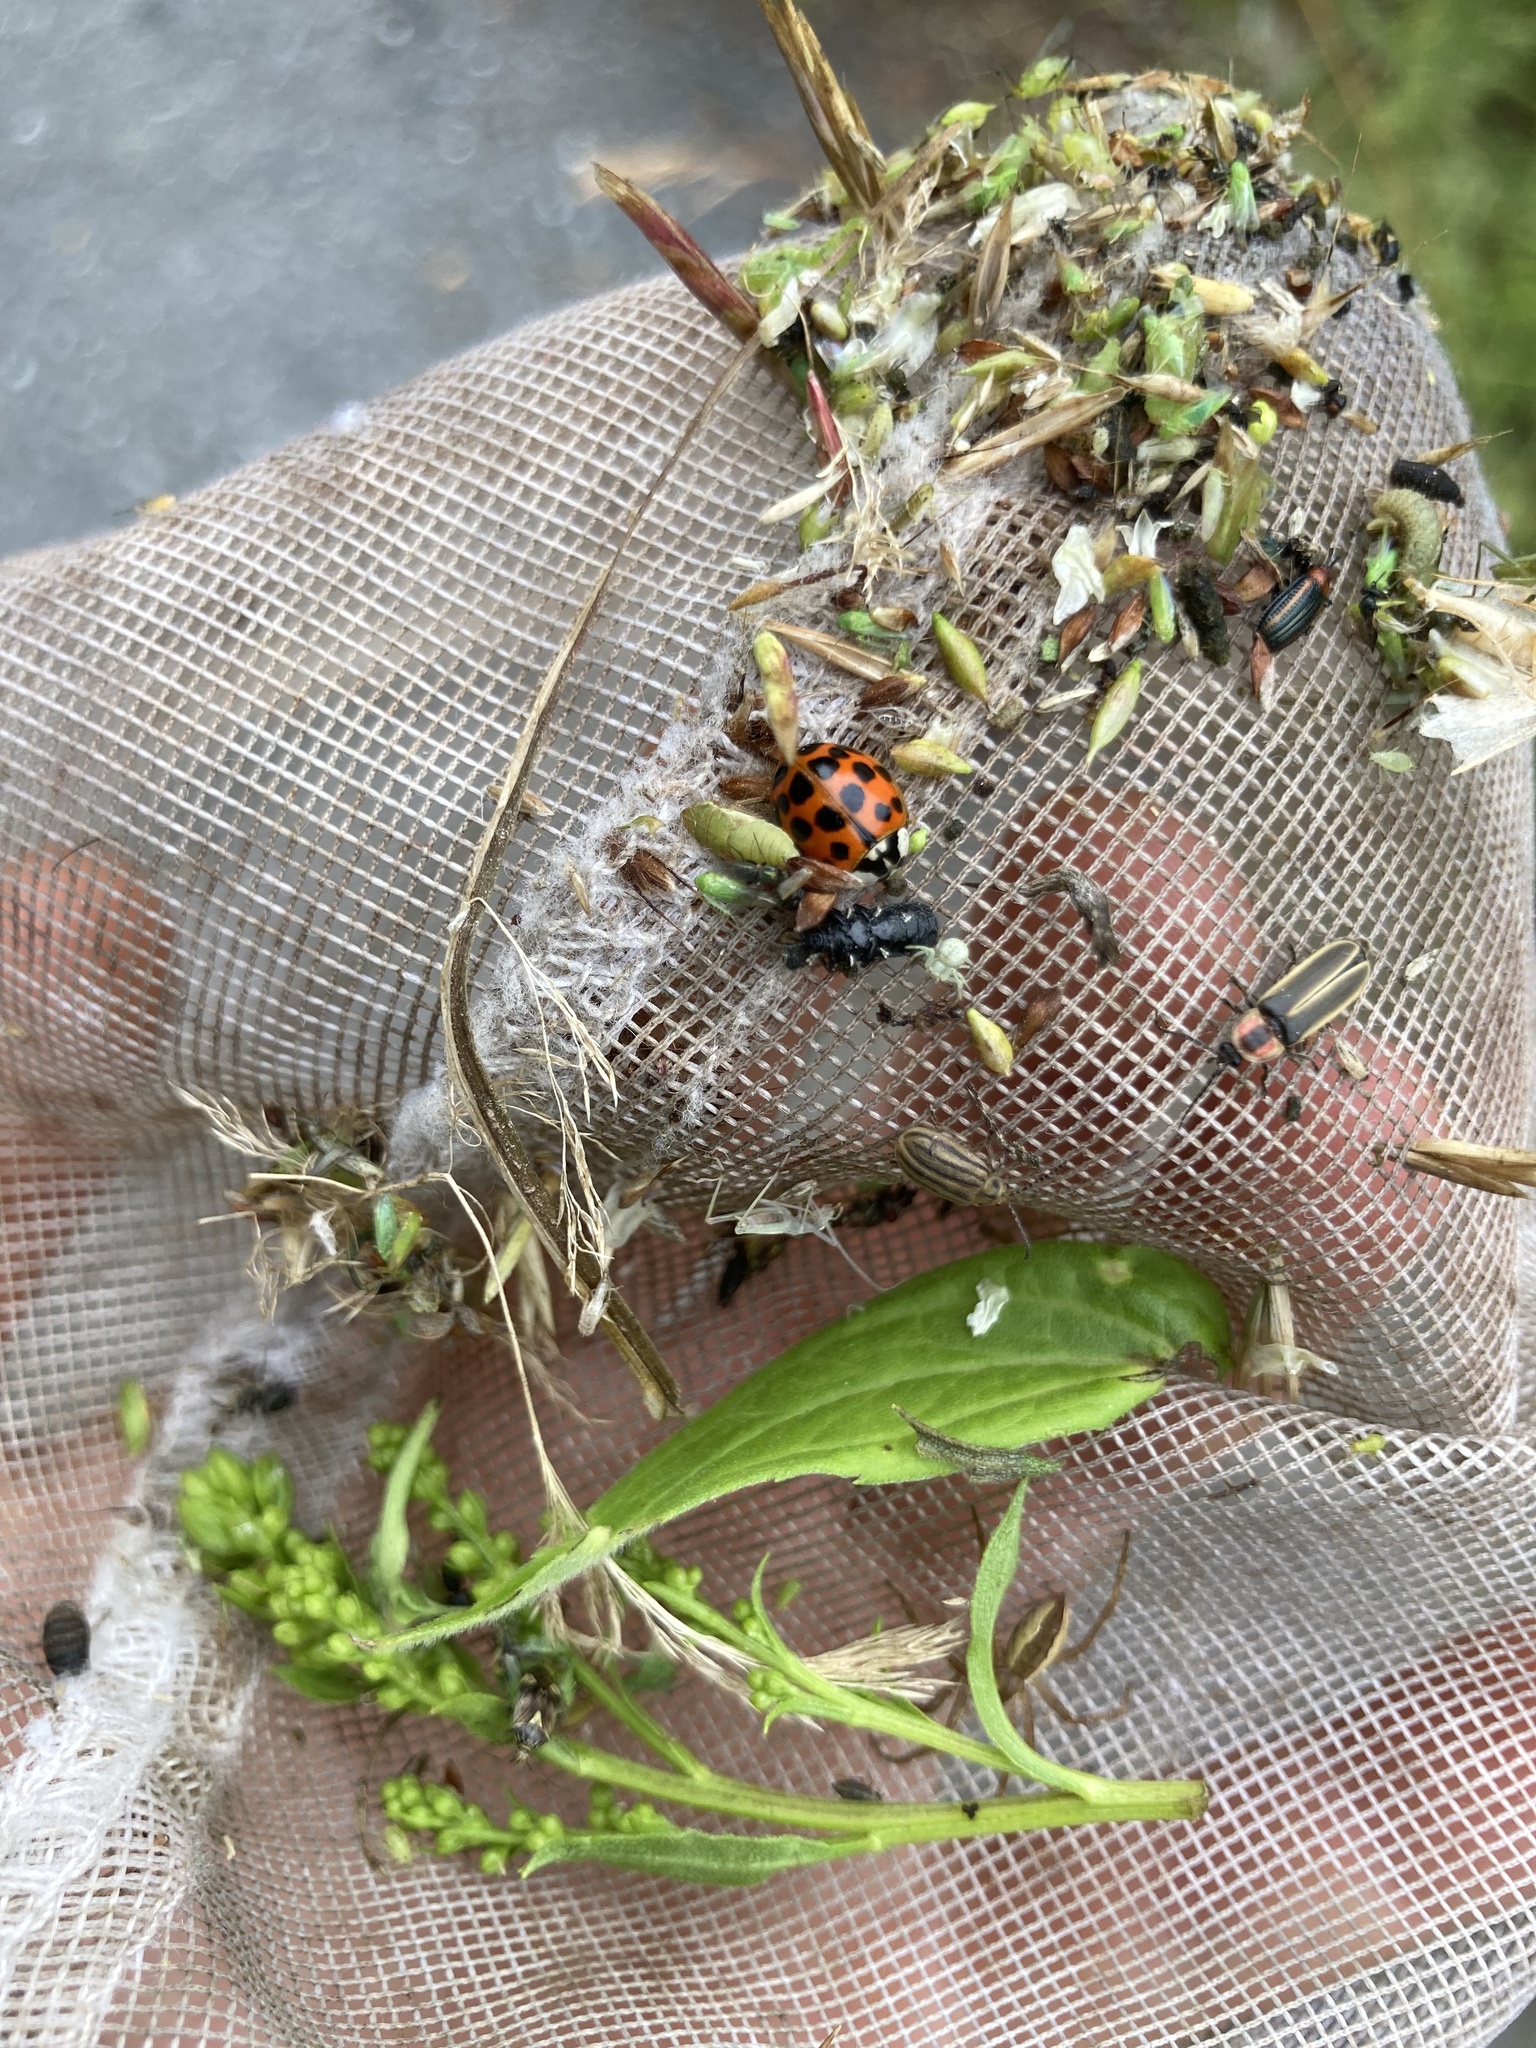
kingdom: Animalia
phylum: Arthropoda
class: Insecta
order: Coleoptera
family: Coccinellidae
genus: Harmonia
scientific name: Harmonia axyridis
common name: Harlequin ladybird
